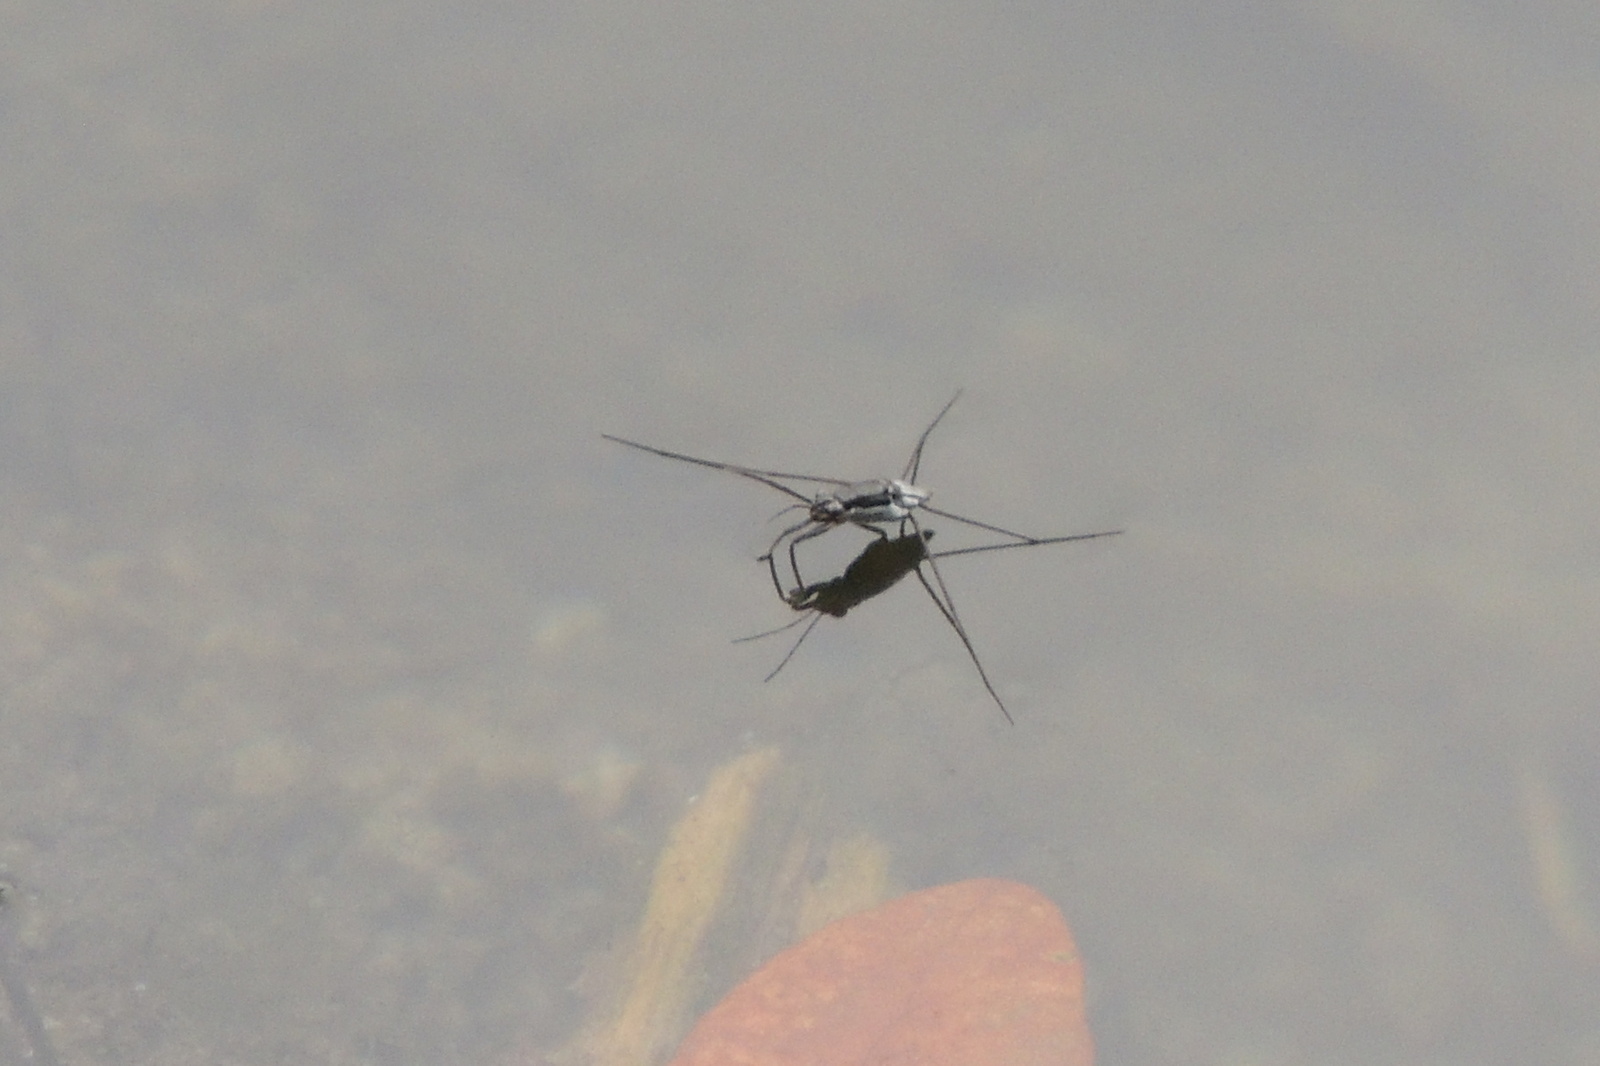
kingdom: Animalia
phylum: Arthropoda
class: Insecta
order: Hemiptera
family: Gerridae
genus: Neogerris
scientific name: Neogerris hesione
